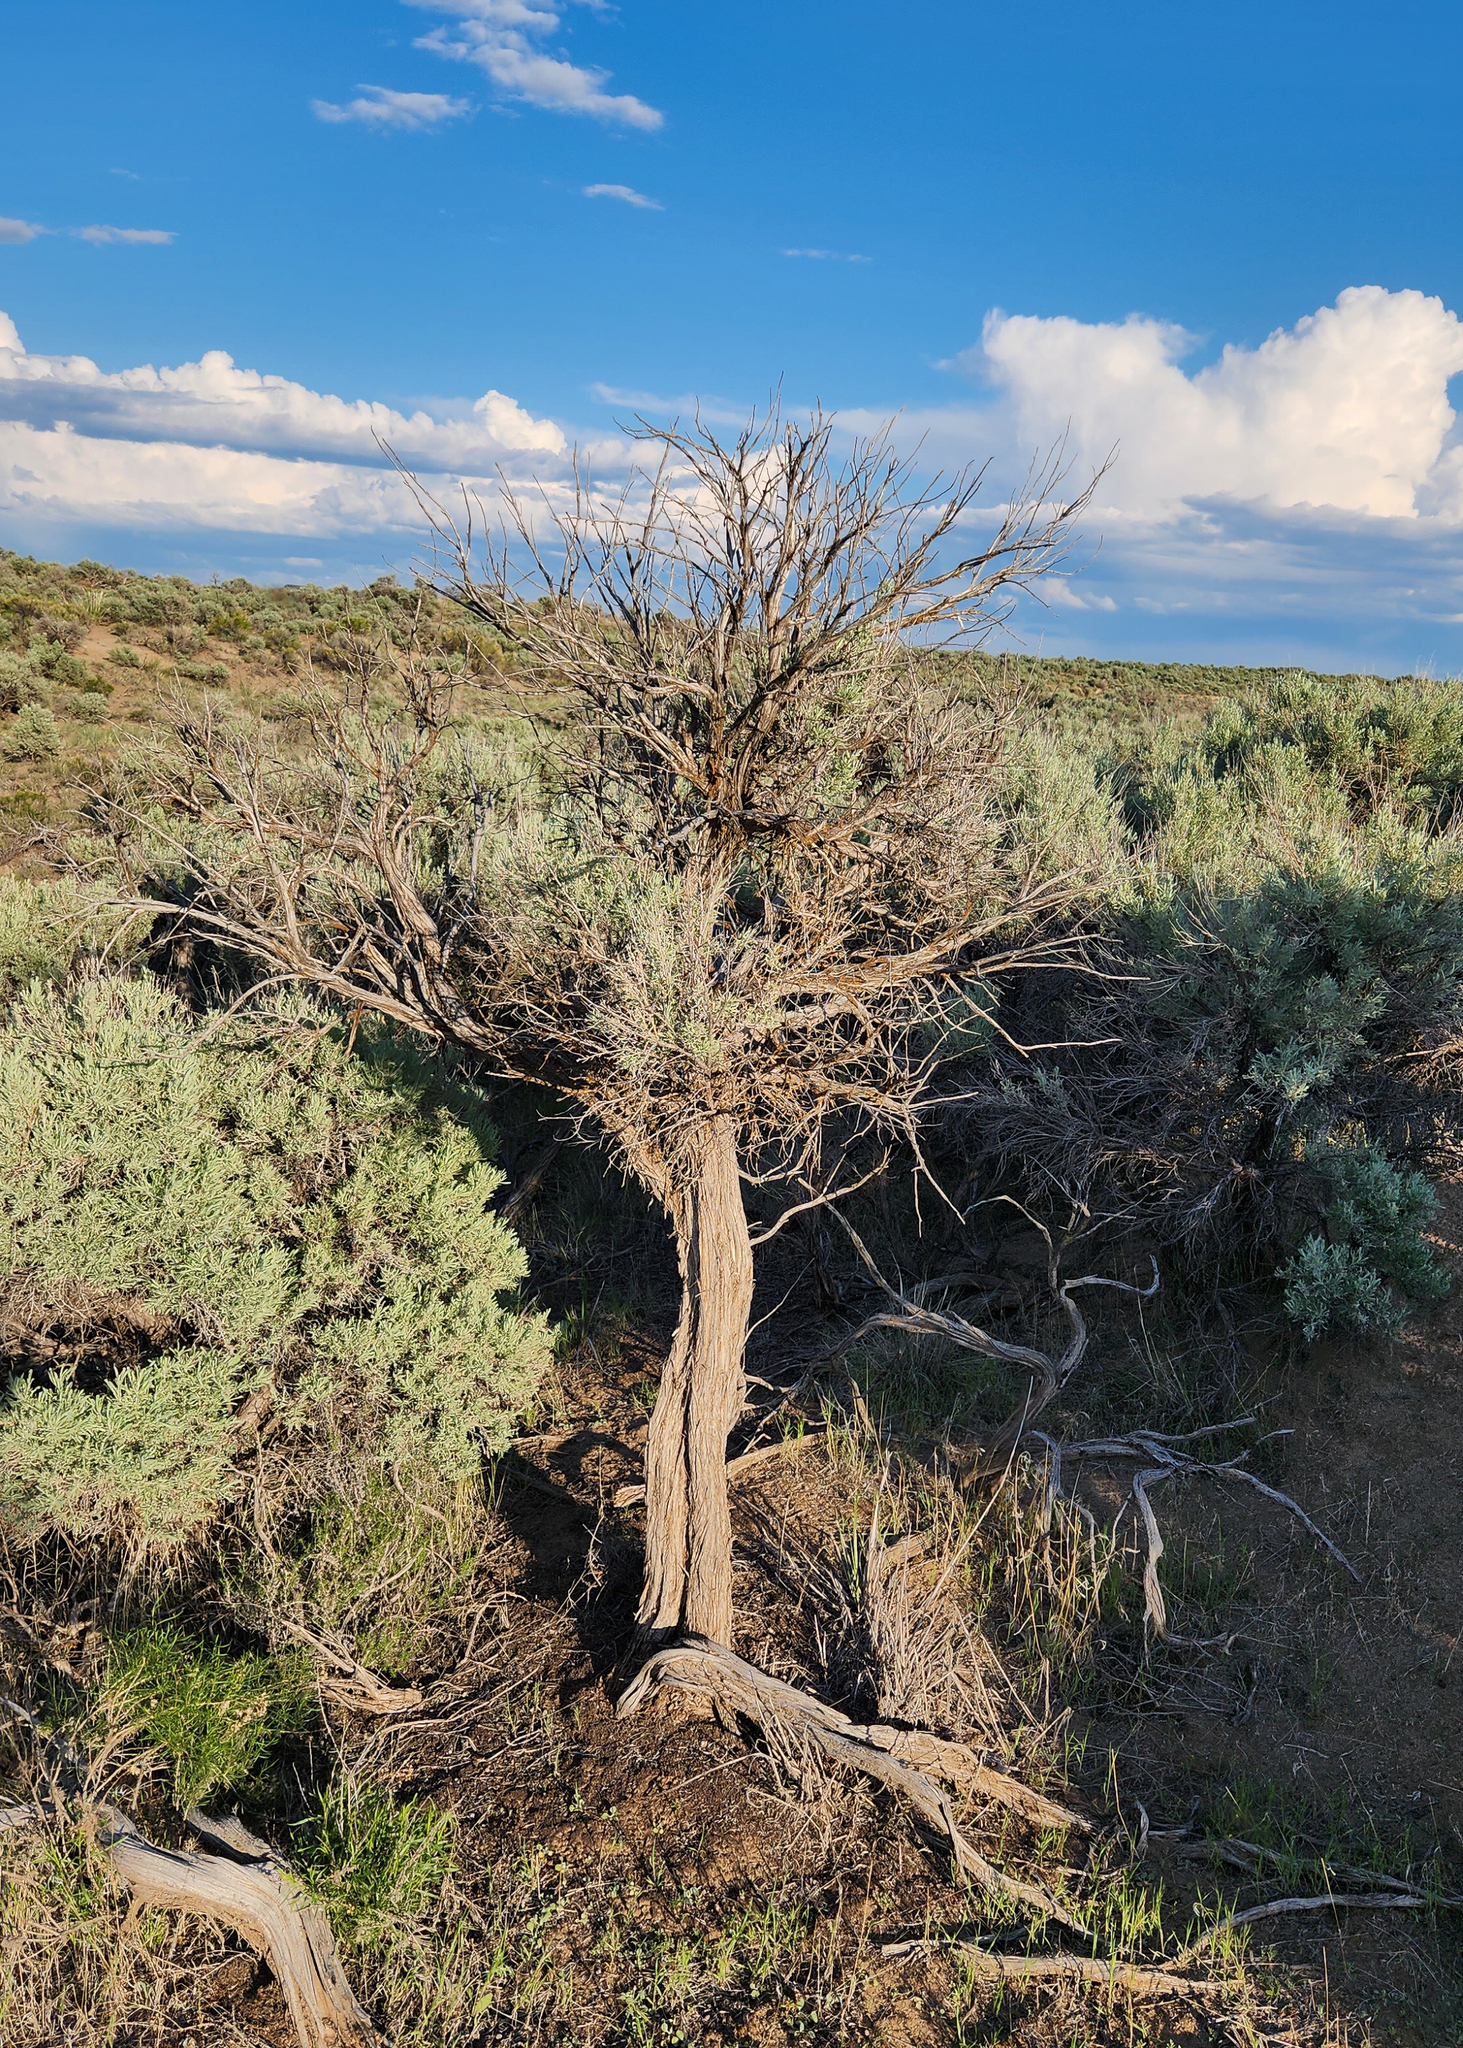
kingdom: Plantae
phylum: Tracheophyta
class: Magnoliopsida
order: Asterales
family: Asteraceae
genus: Artemisia
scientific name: Artemisia tridentata
